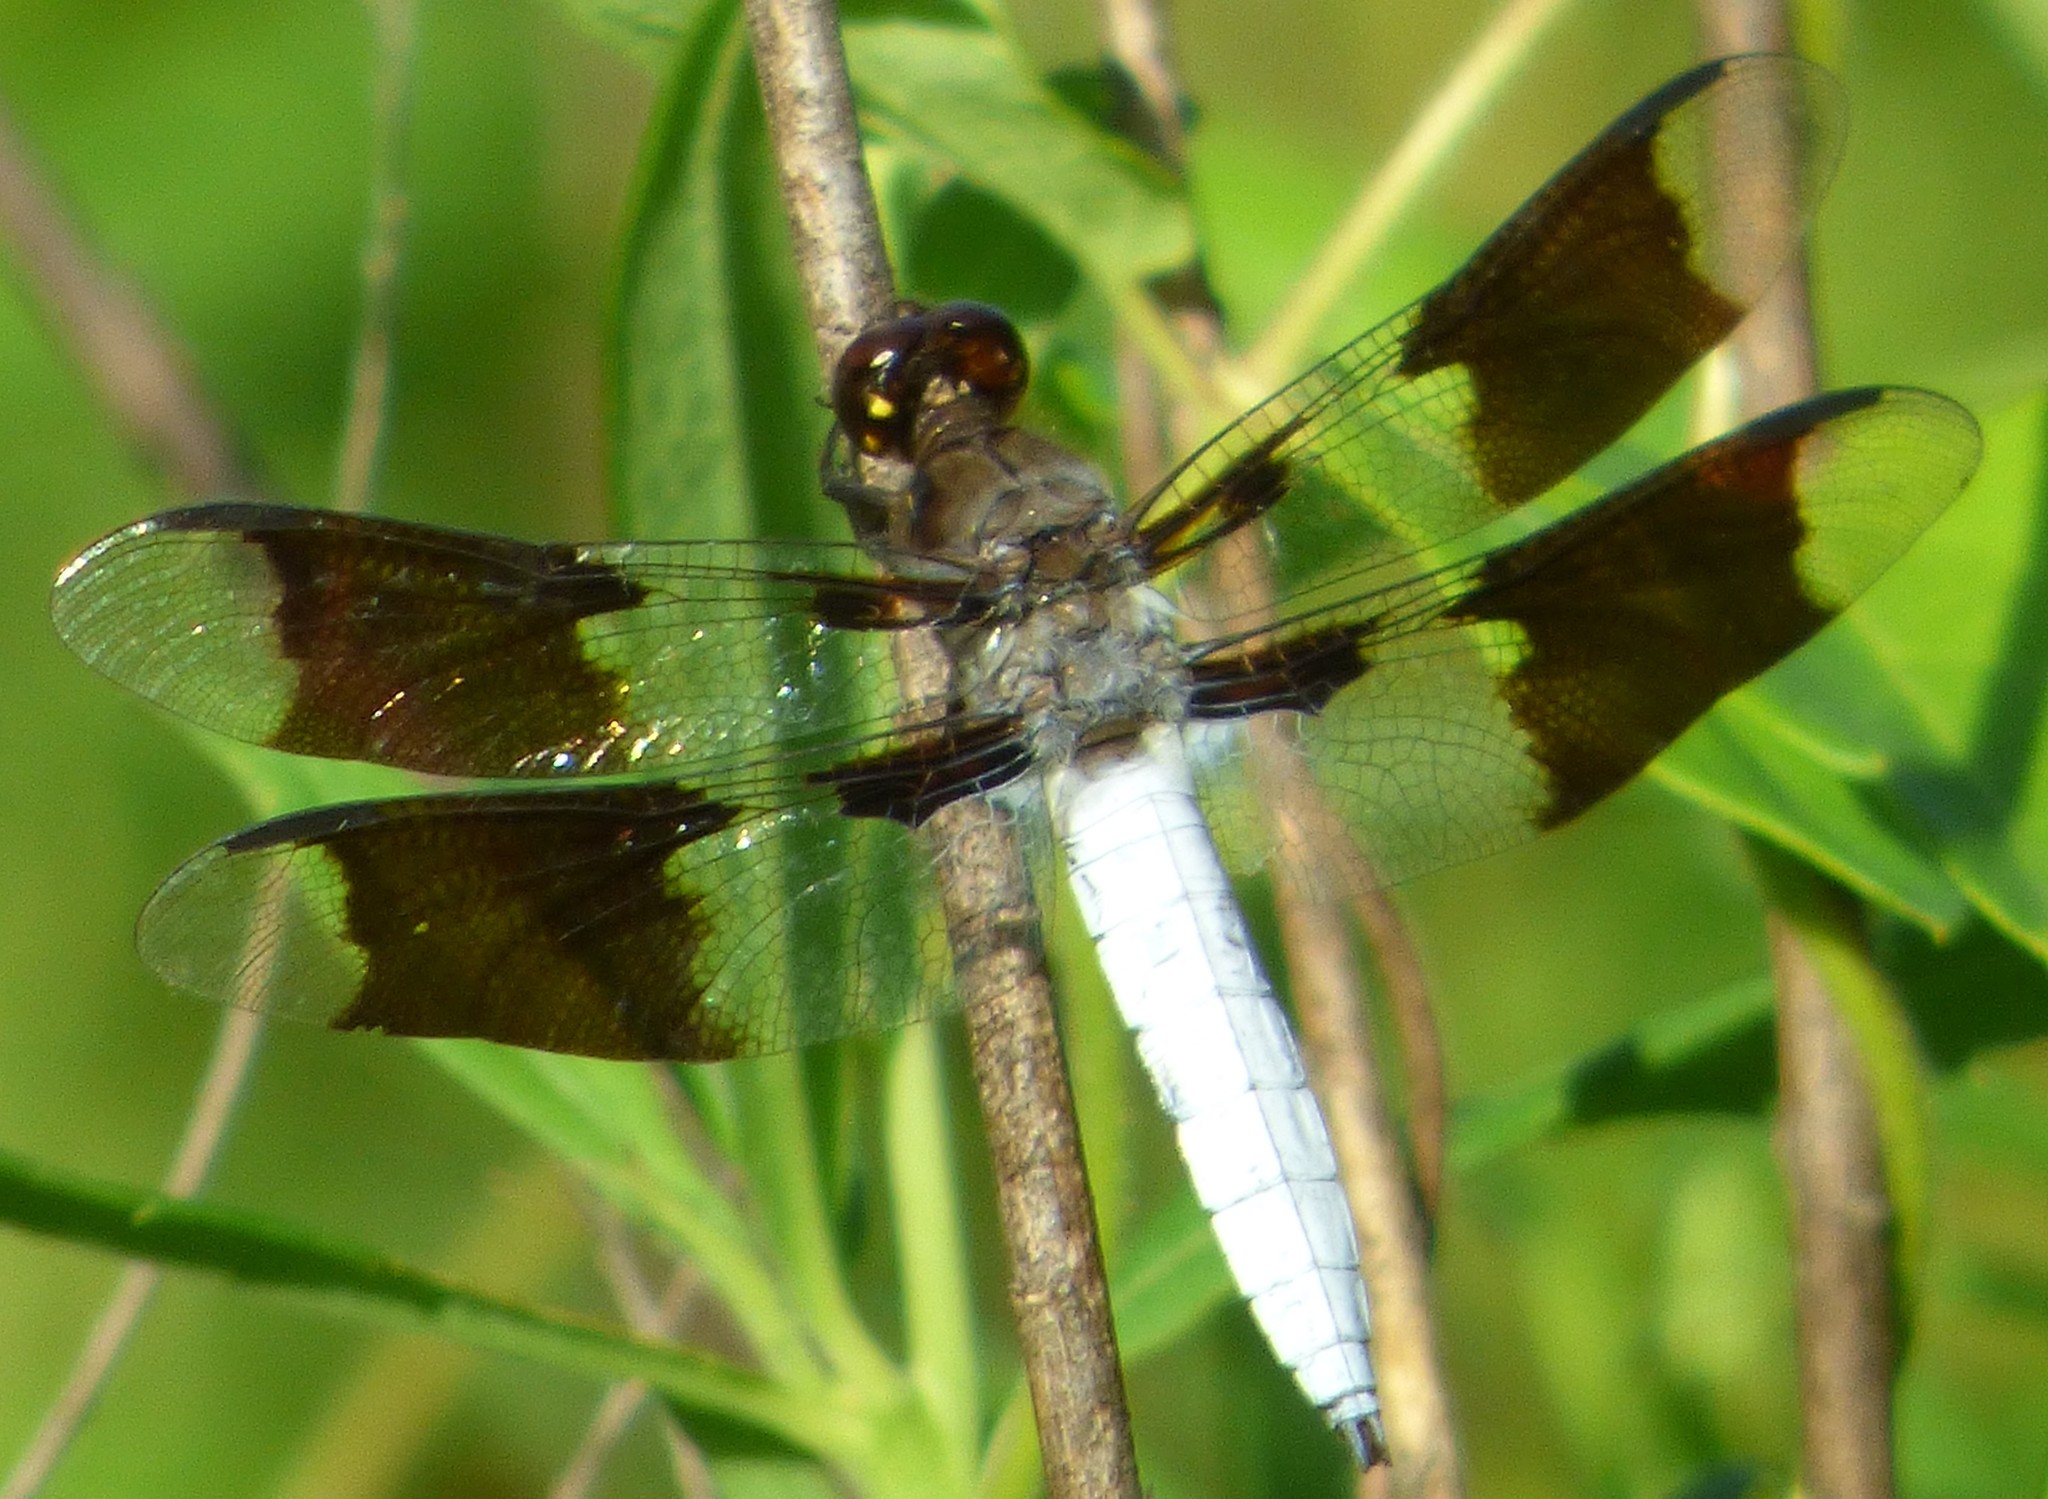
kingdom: Animalia
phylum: Arthropoda
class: Insecta
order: Odonata
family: Libellulidae
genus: Plathemis
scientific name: Plathemis lydia
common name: Common whitetail
